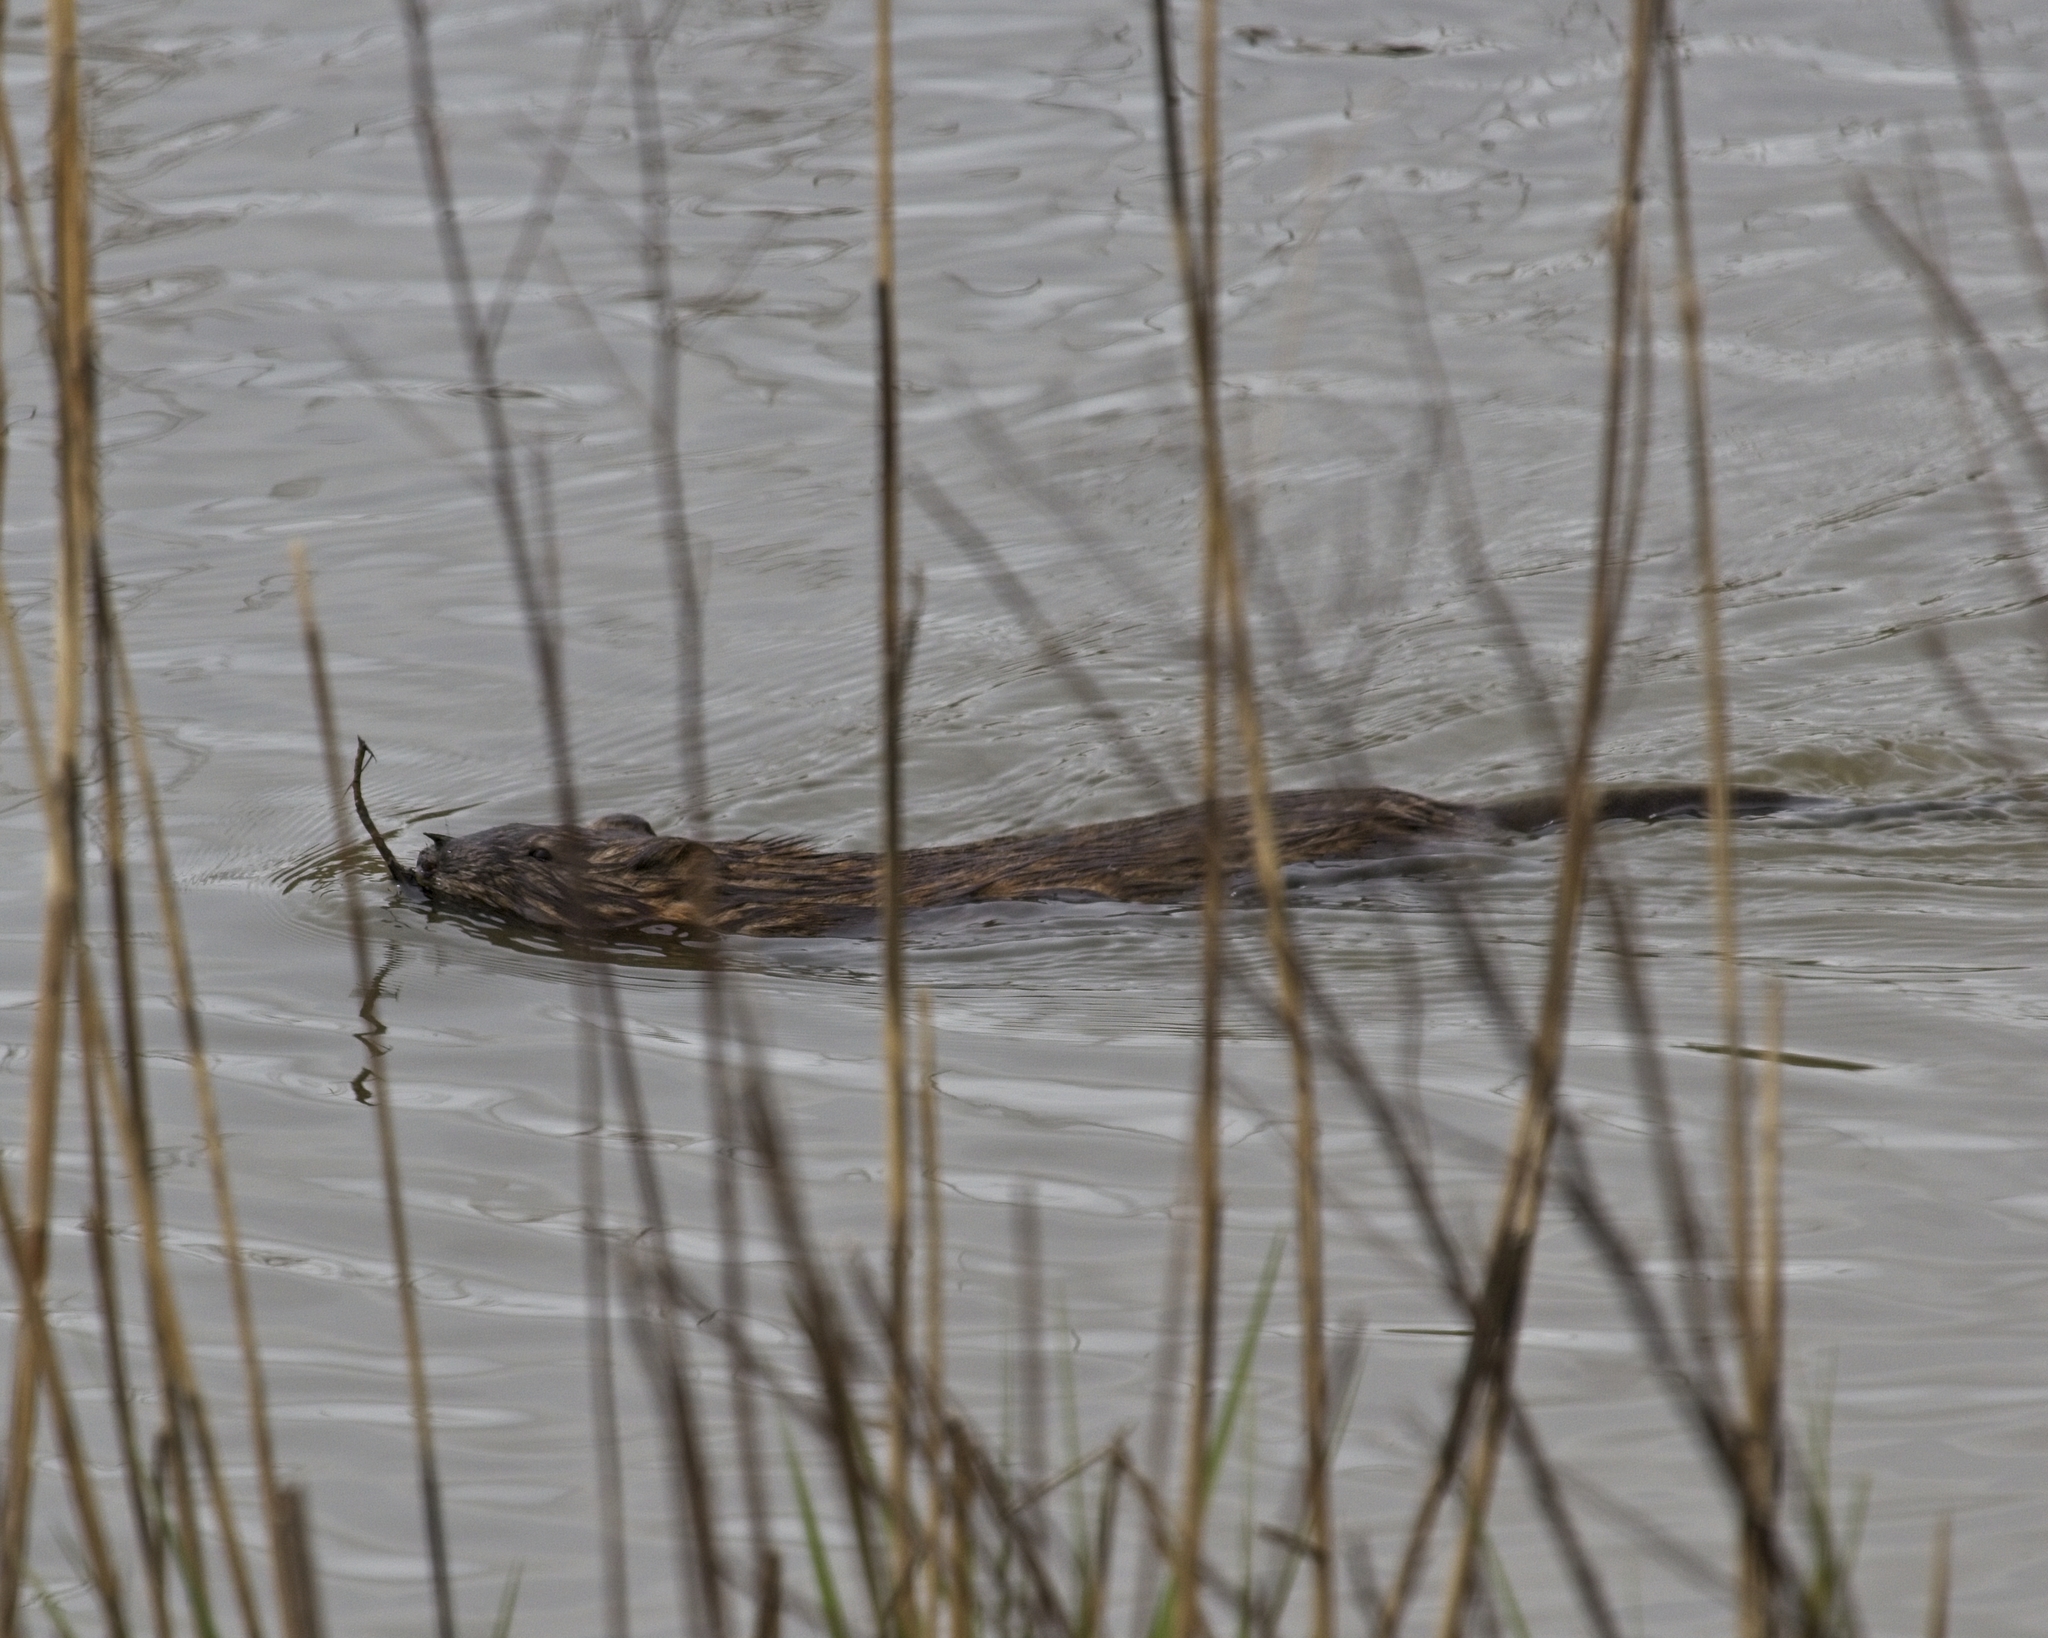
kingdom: Animalia
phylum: Chordata
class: Mammalia
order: Rodentia
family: Cricetidae
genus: Ondatra
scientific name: Ondatra zibethicus
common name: Muskrat
